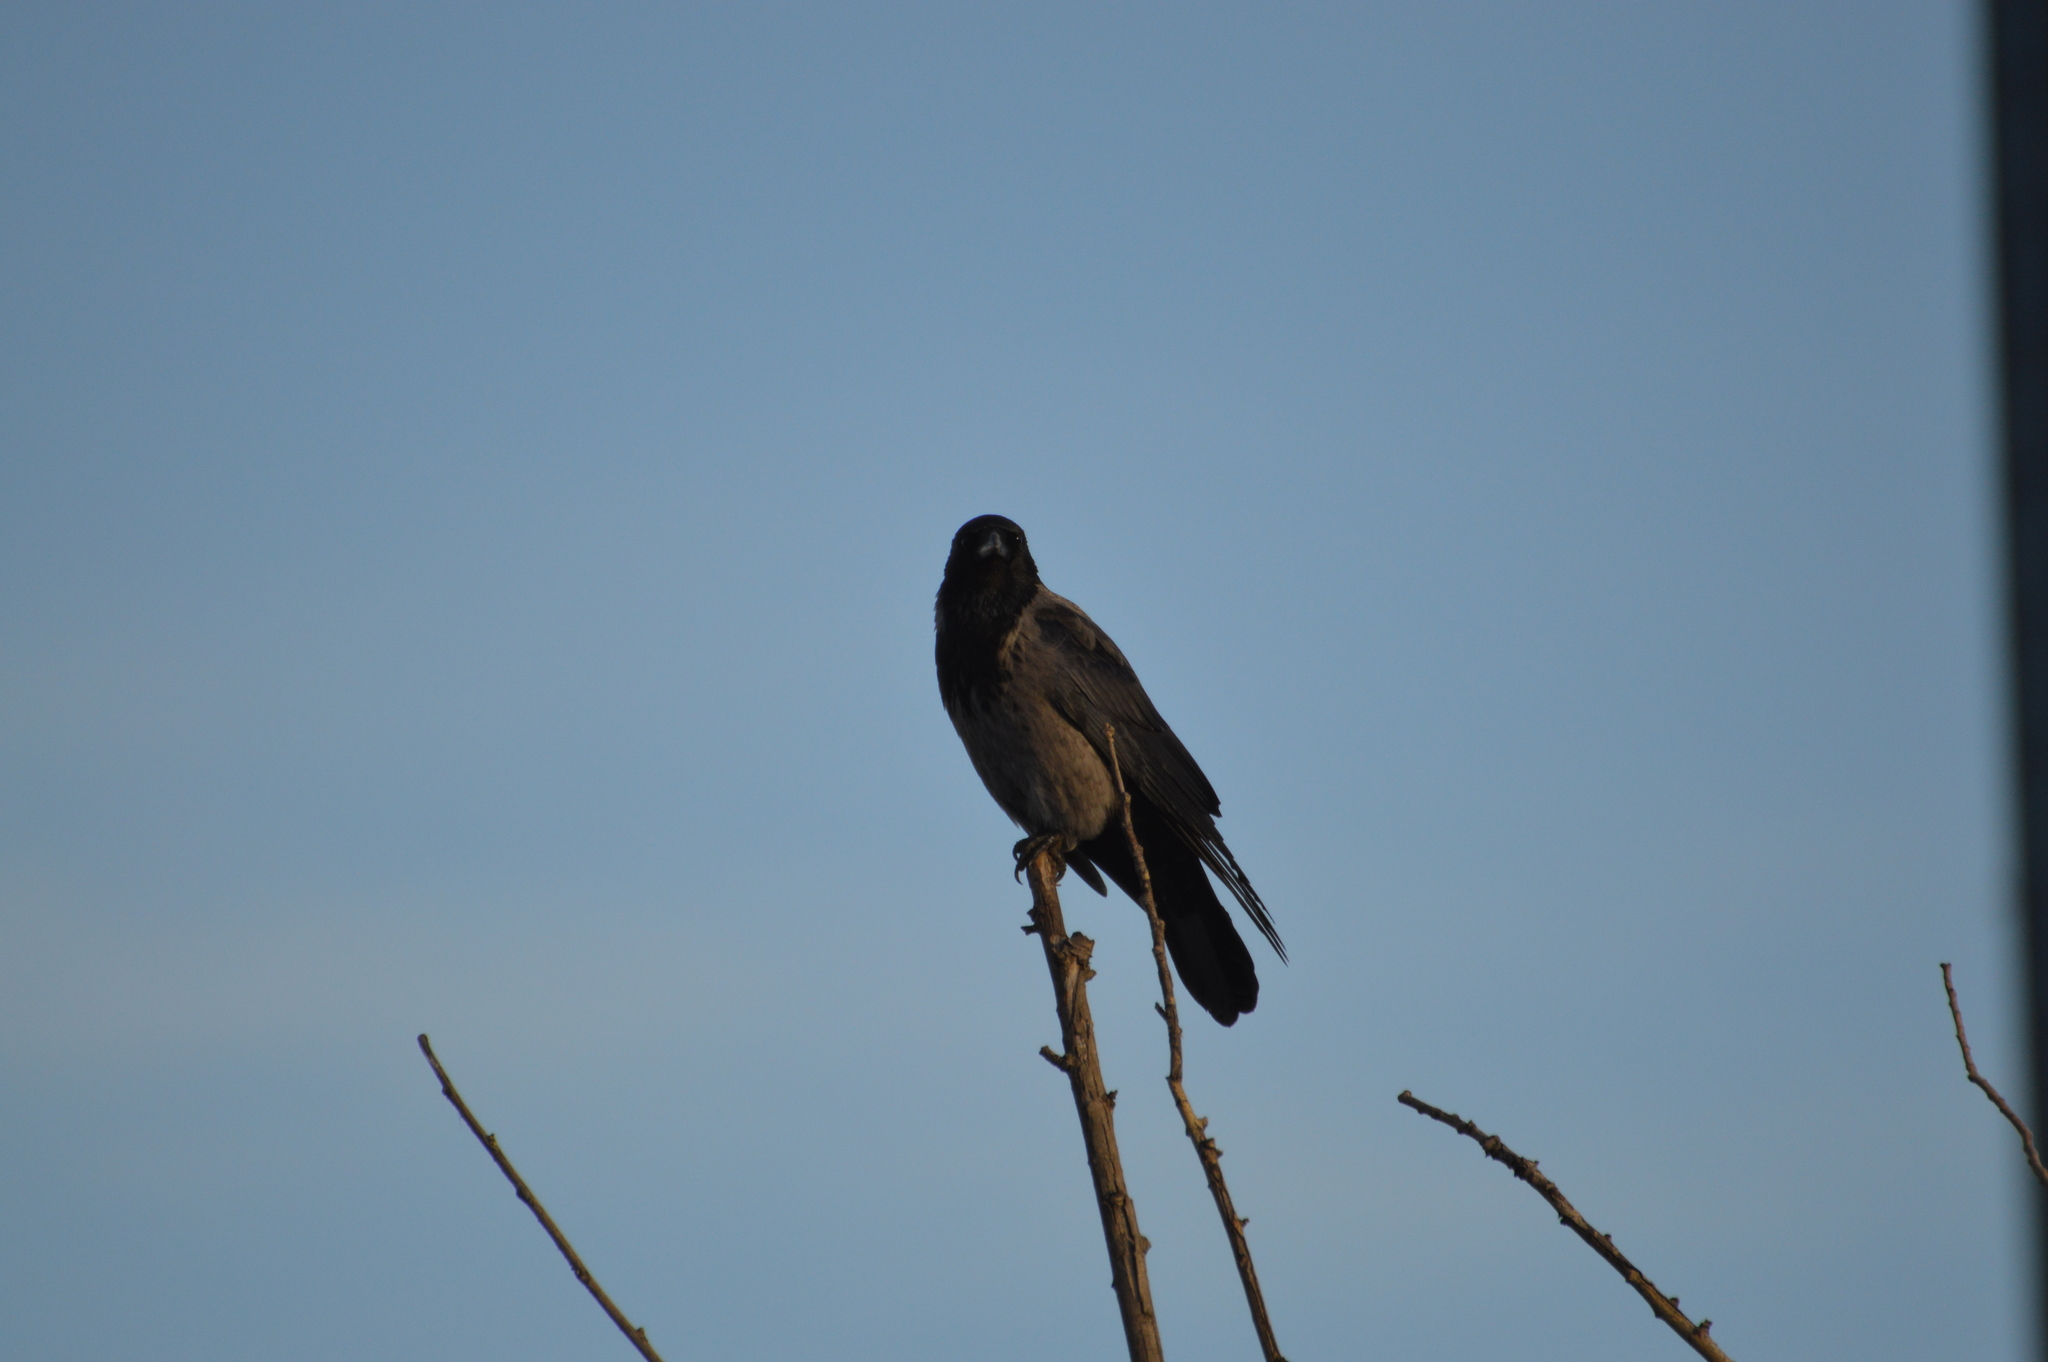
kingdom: Animalia
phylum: Chordata
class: Aves
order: Passeriformes
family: Corvidae
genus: Corvus
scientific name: Corvus
